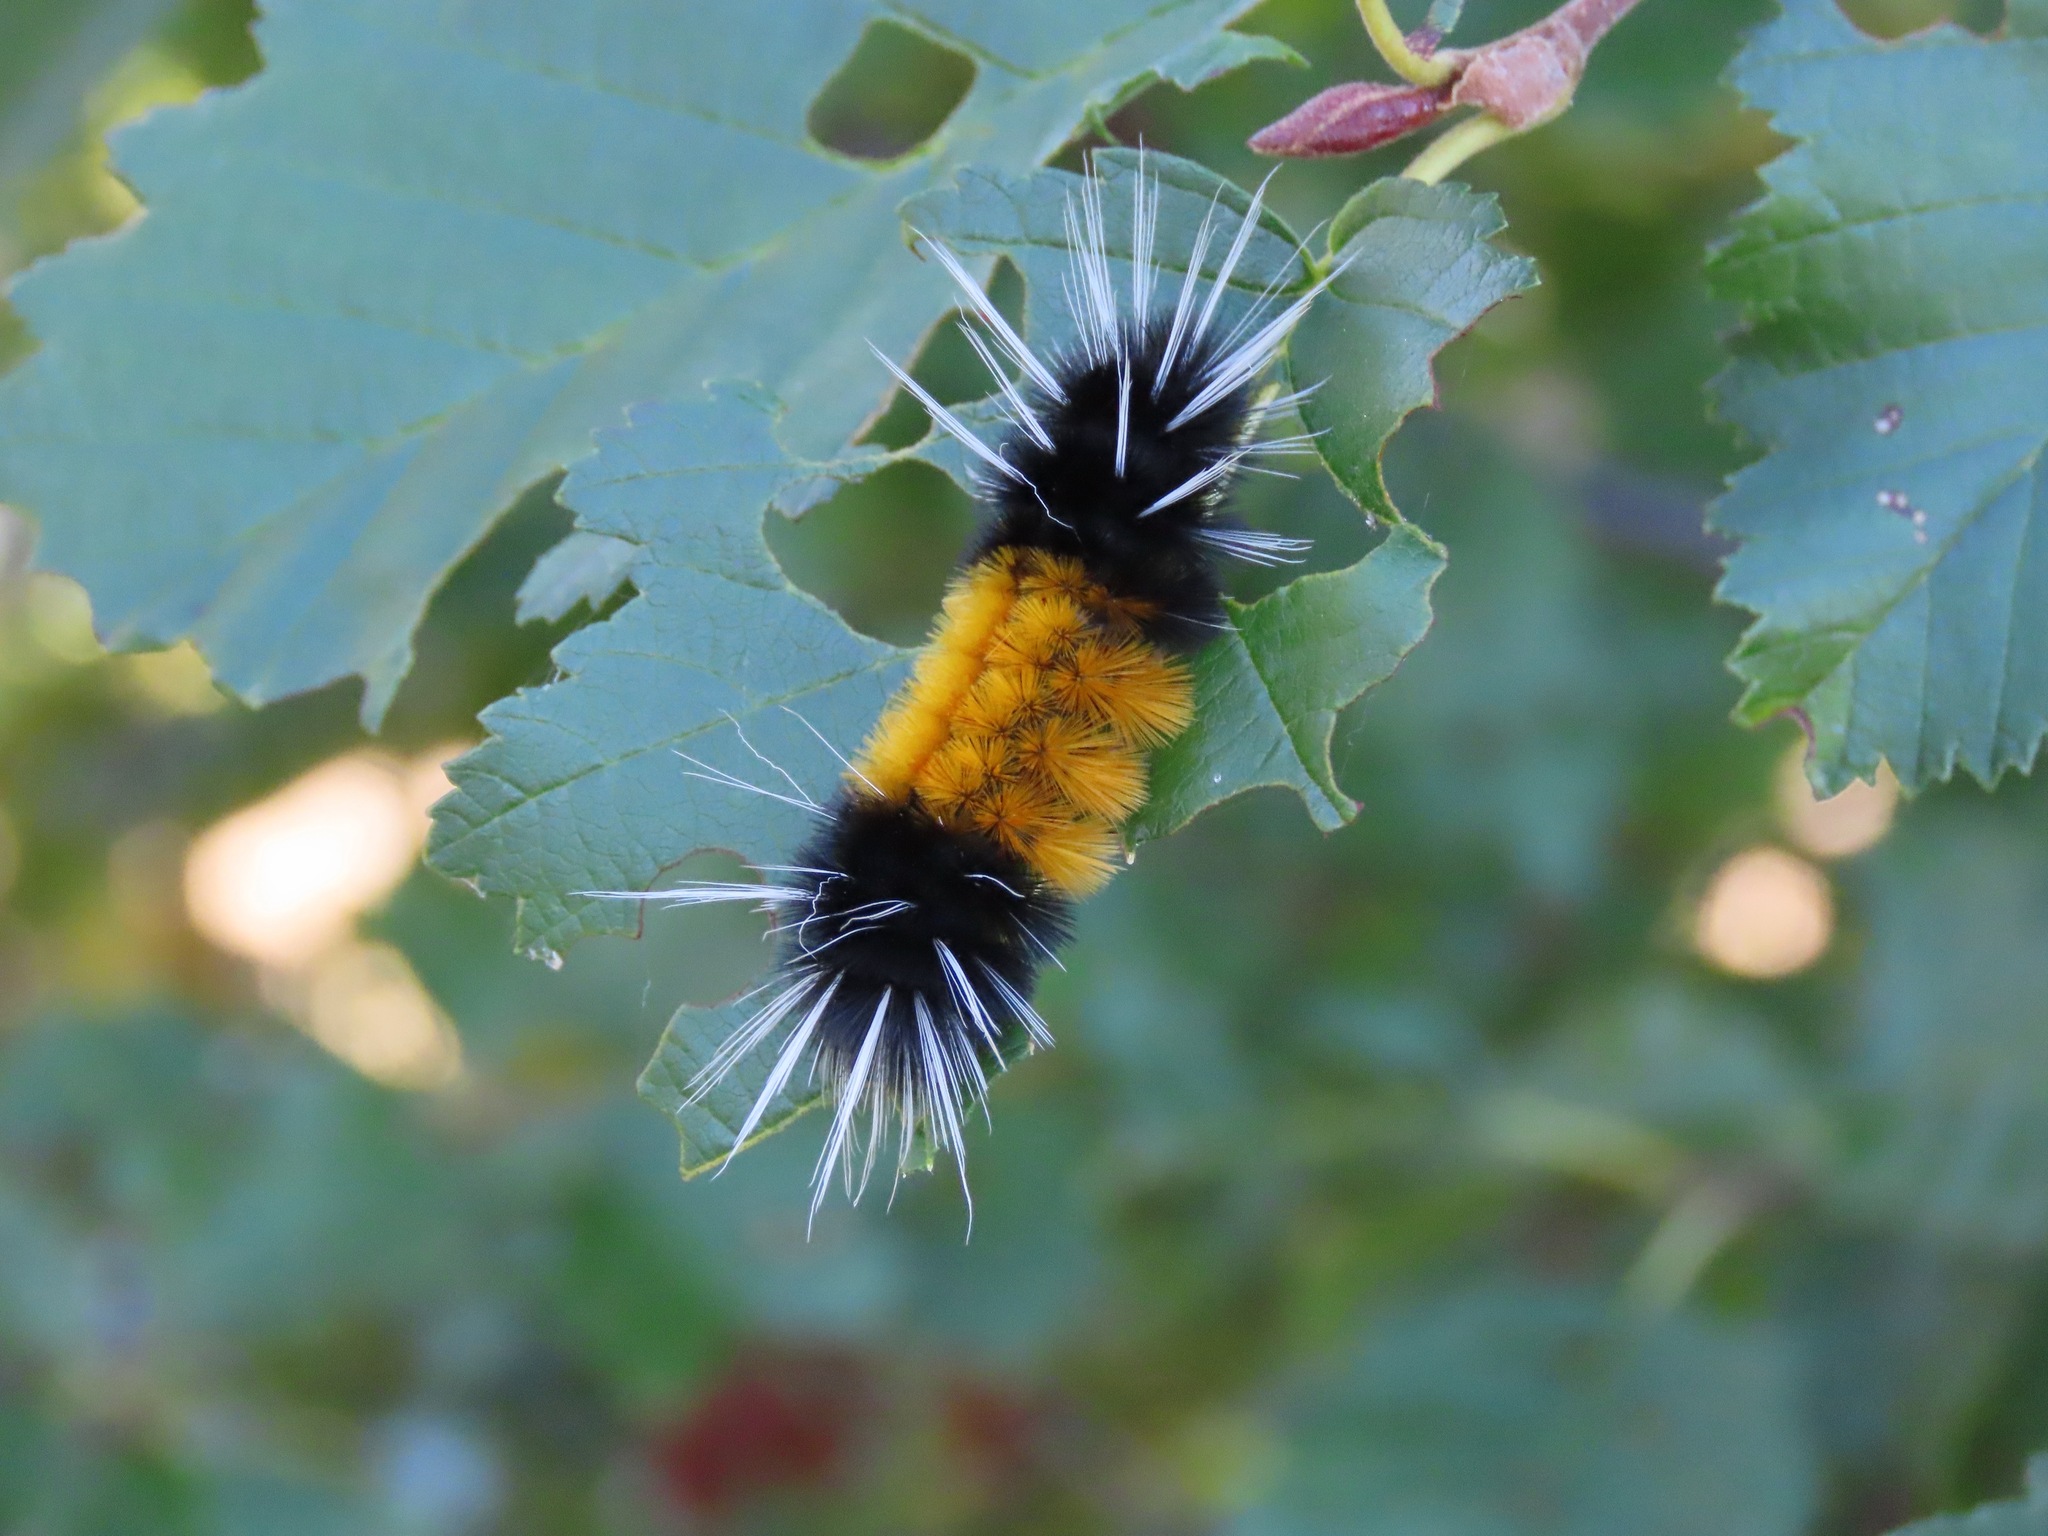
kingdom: Animalia
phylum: Arthropoda
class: Insecta
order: Lepidoptera
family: Erebidae
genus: Lophocampa
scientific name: Lophocampa maculata
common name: Spotted tussock moth
